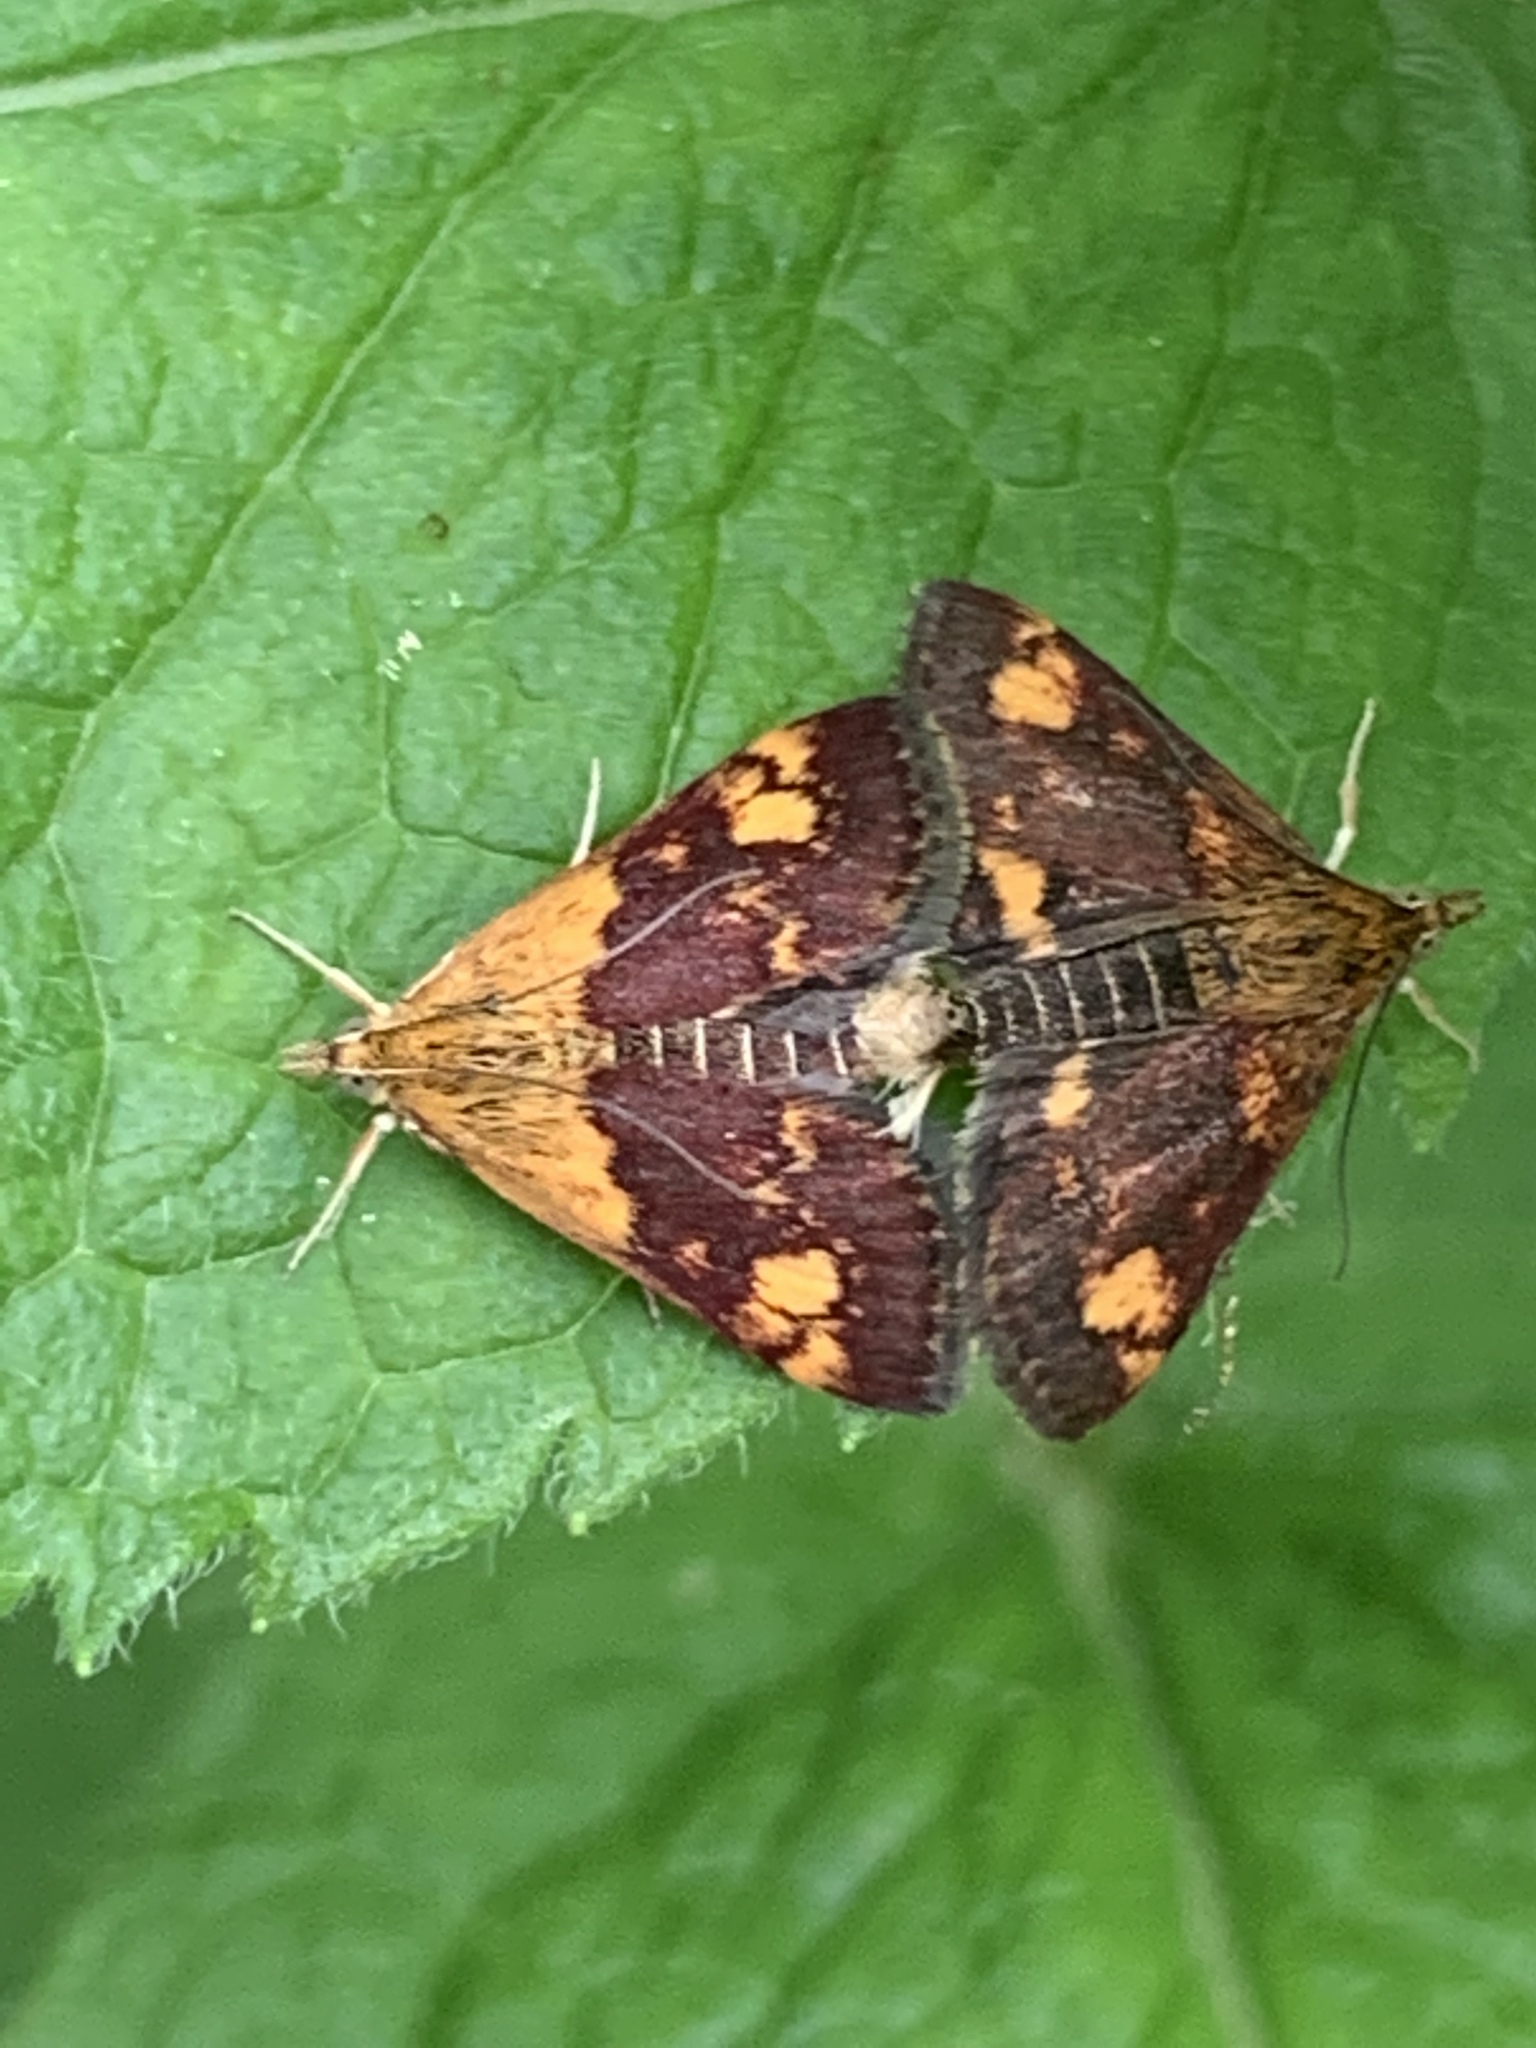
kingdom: Animalia
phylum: Arthropoda
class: Insecta
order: Lepidoptera
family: Crambidae
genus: Pyrausta
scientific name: Pyrausta orphisalis
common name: Orange mint moth
